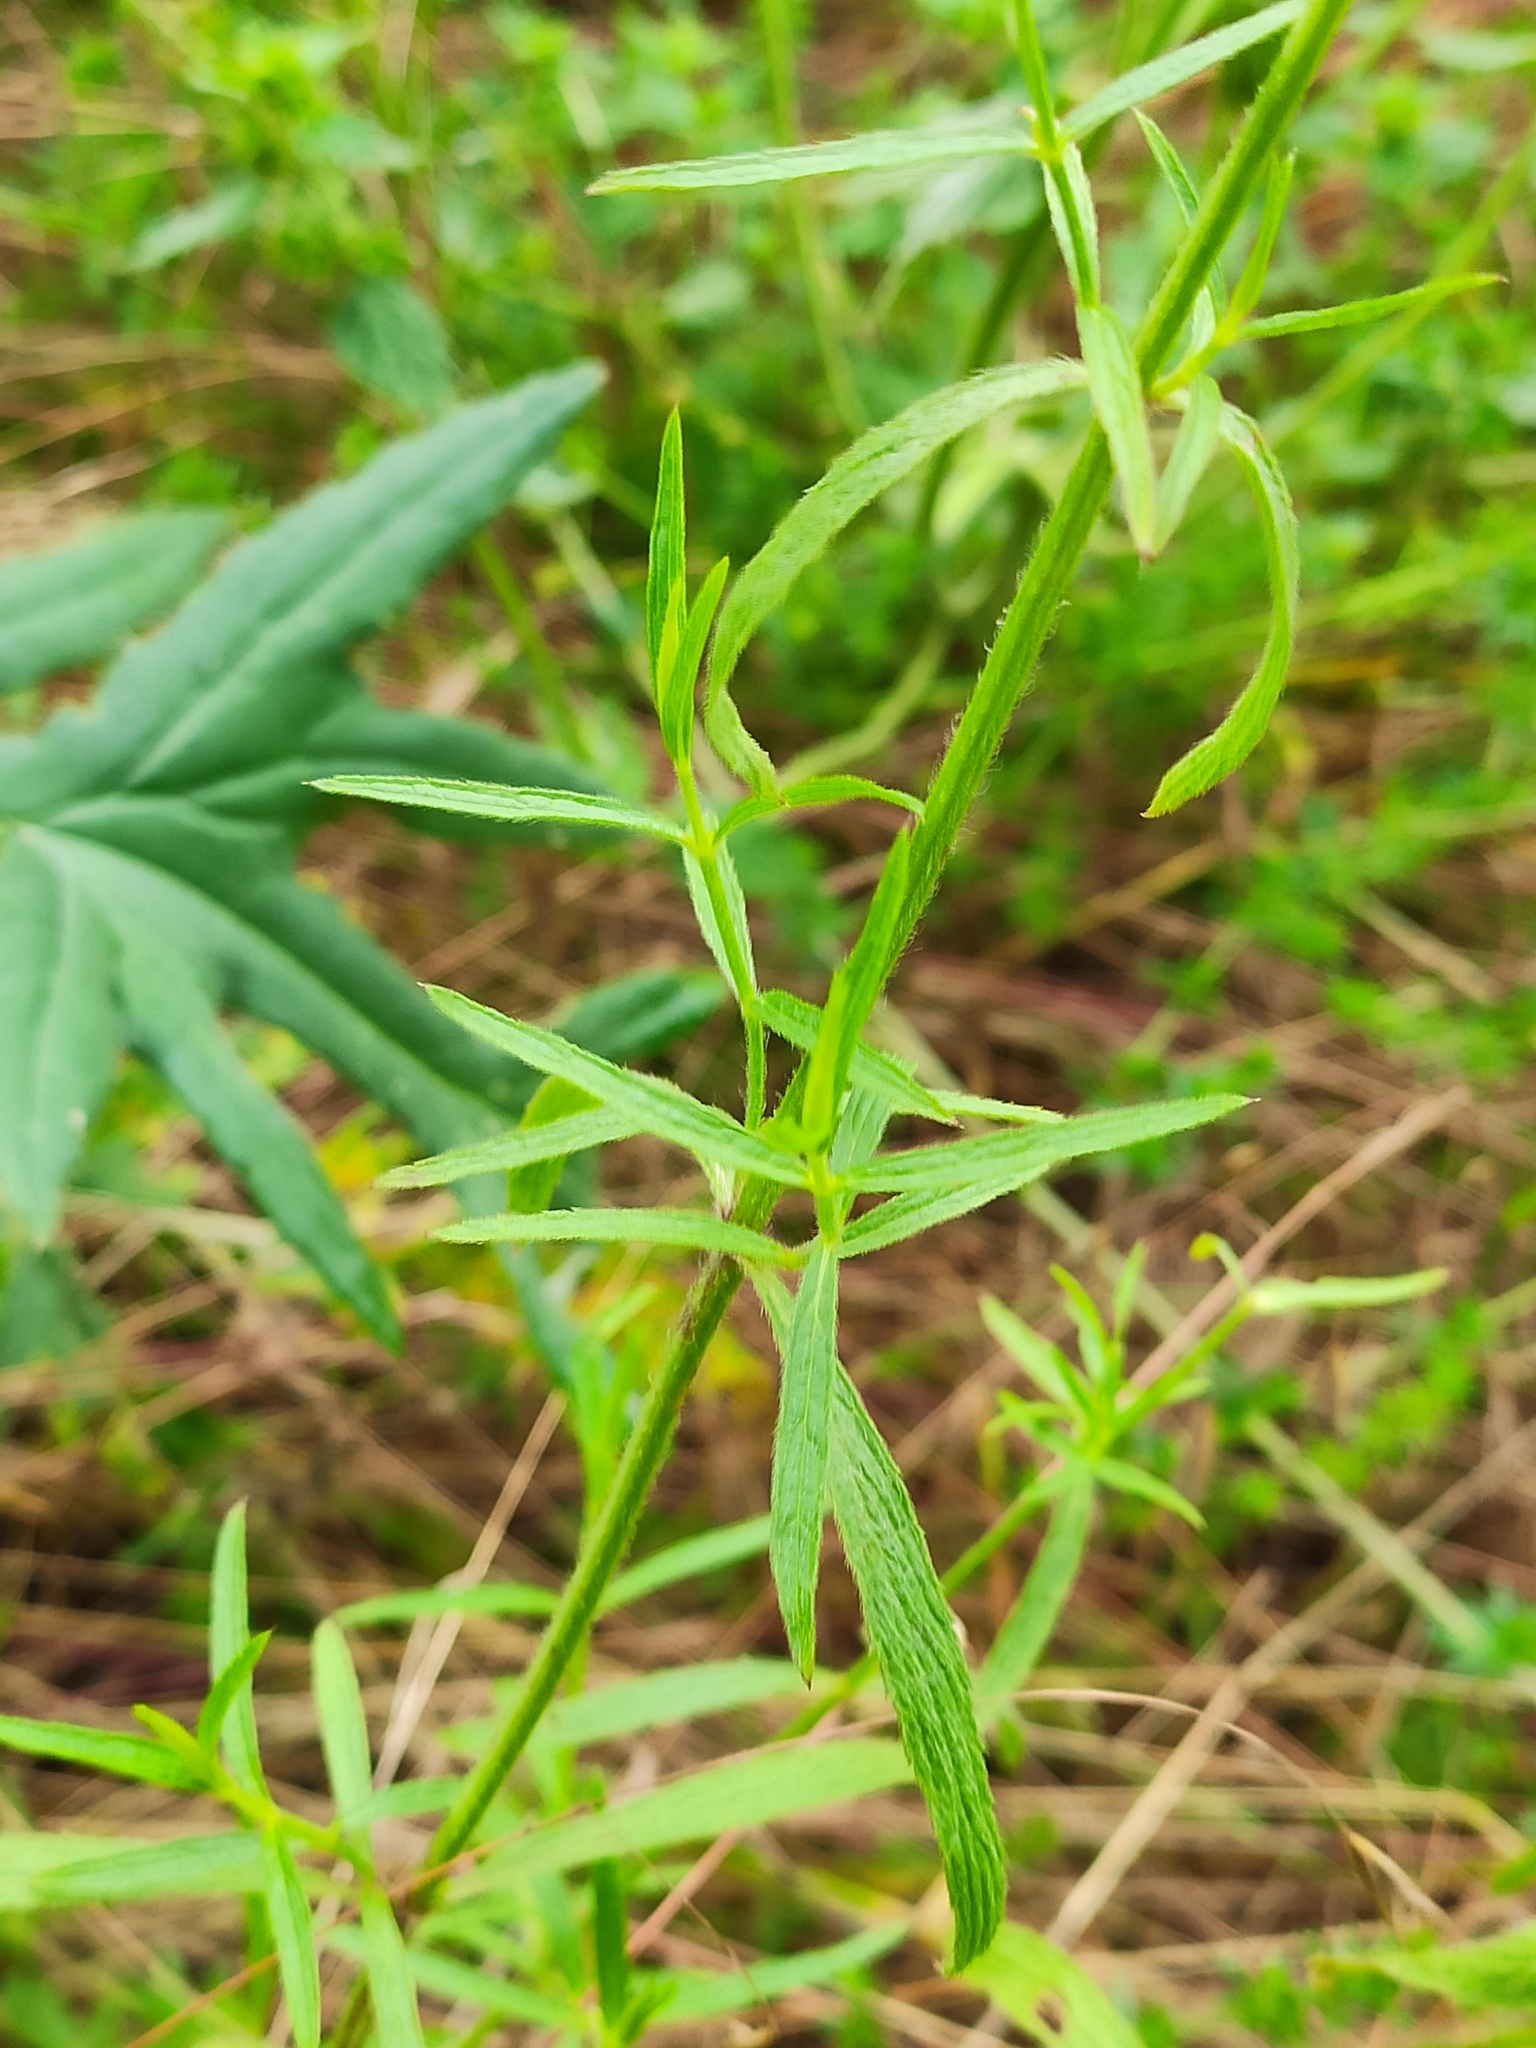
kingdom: Plantae
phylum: Tracheophyta
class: Magnoliopsida
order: Lamiales
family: Lamiaceae
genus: Stachys
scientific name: Stachys recta
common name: Perennial yellow-woundwort
